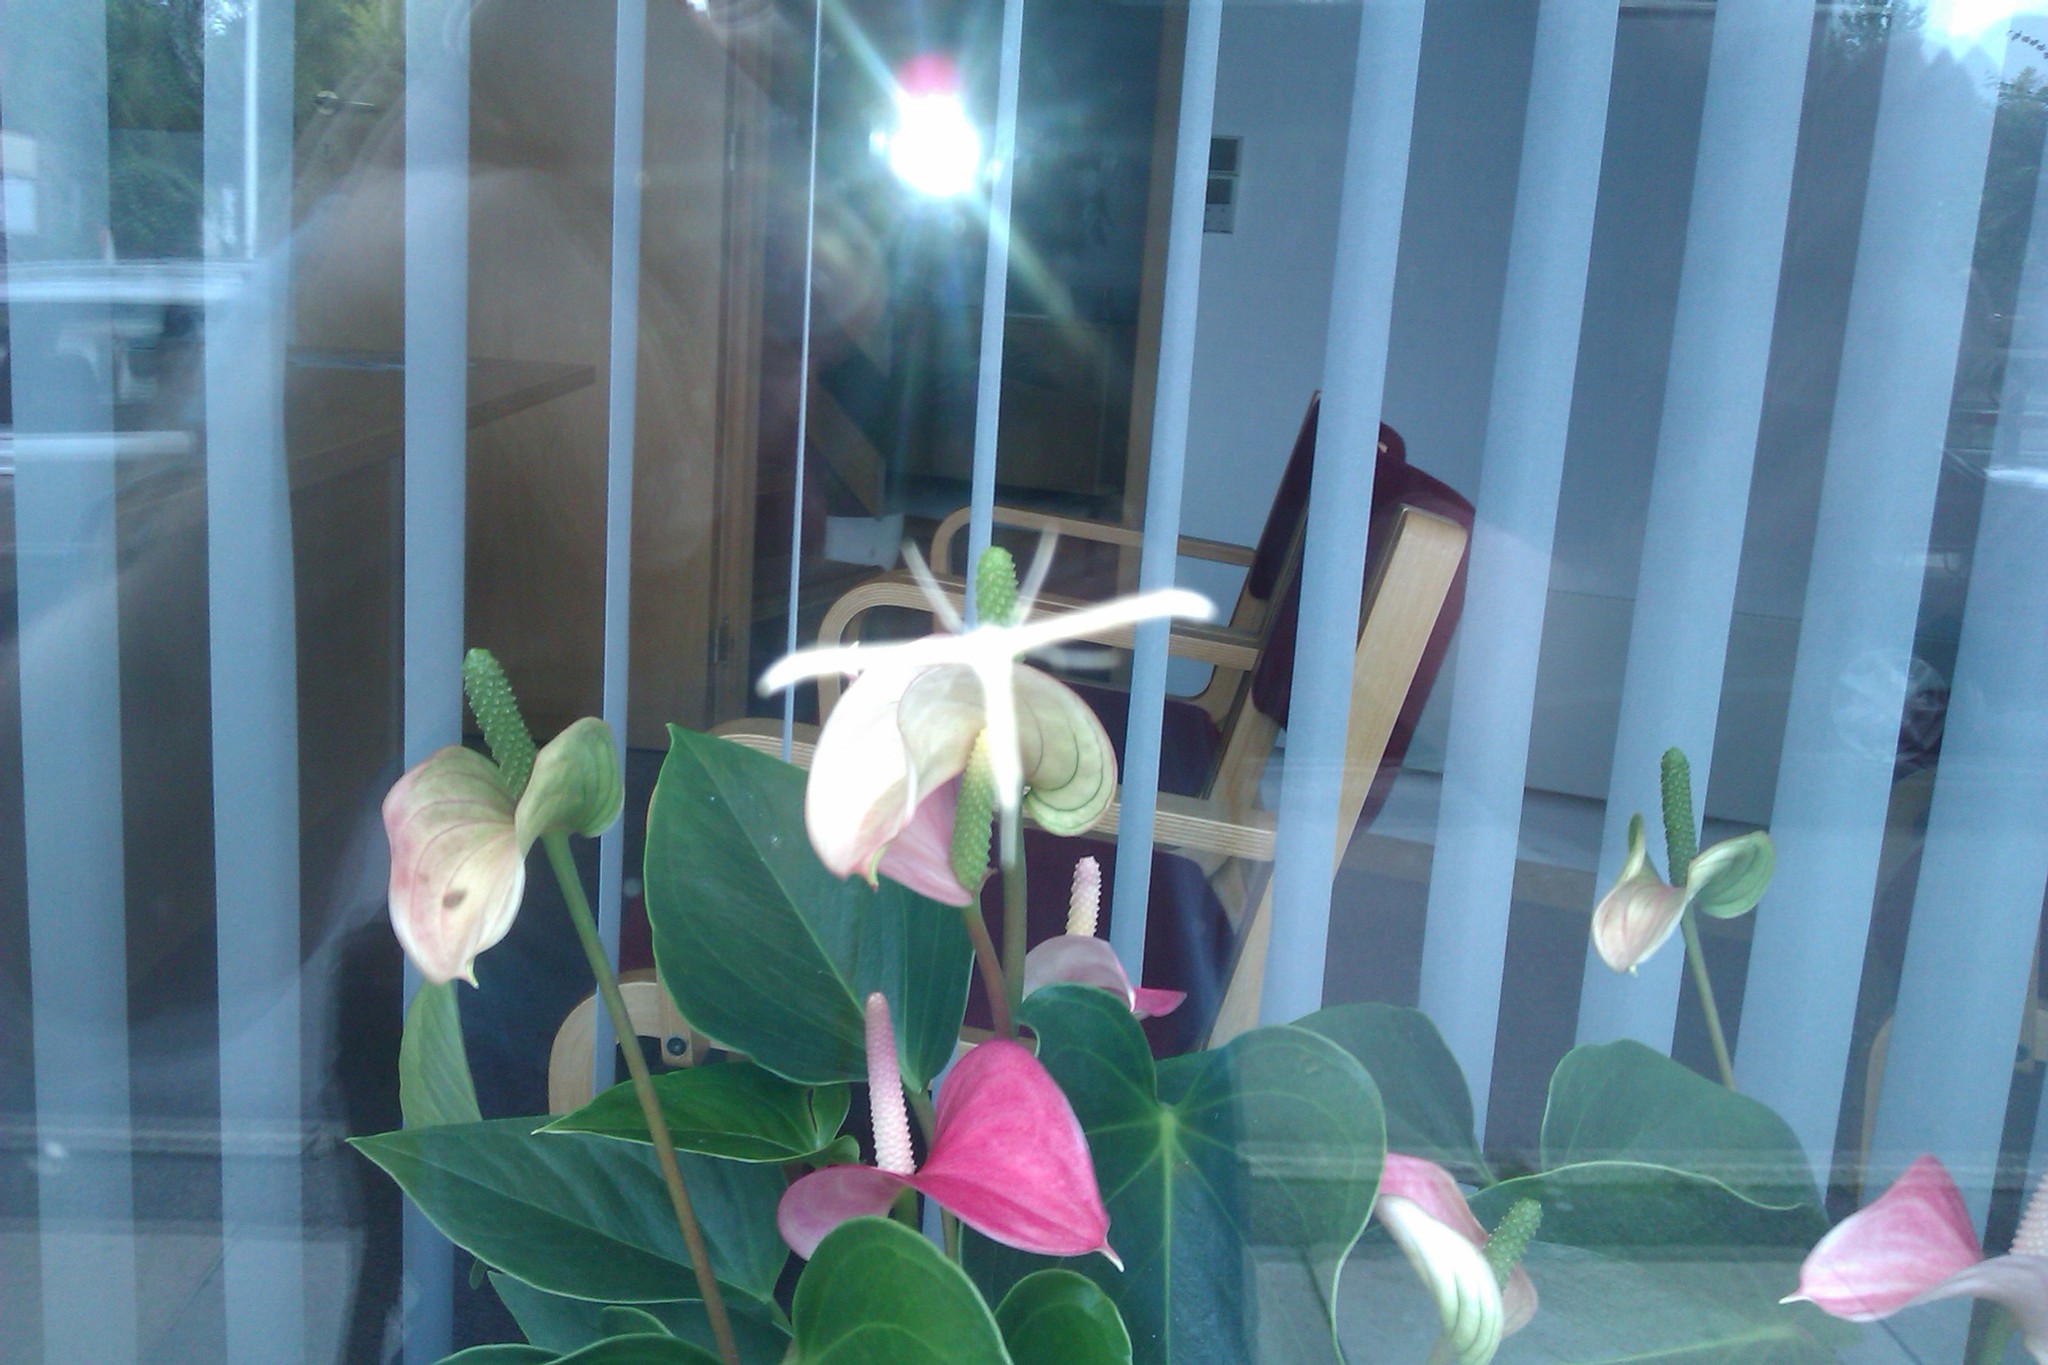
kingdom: Animalia
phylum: Arthropoda
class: Insecta
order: Lepidoptera
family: Pterophoridae
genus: Emmelina
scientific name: Emmelina monodactyla
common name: Common plume
